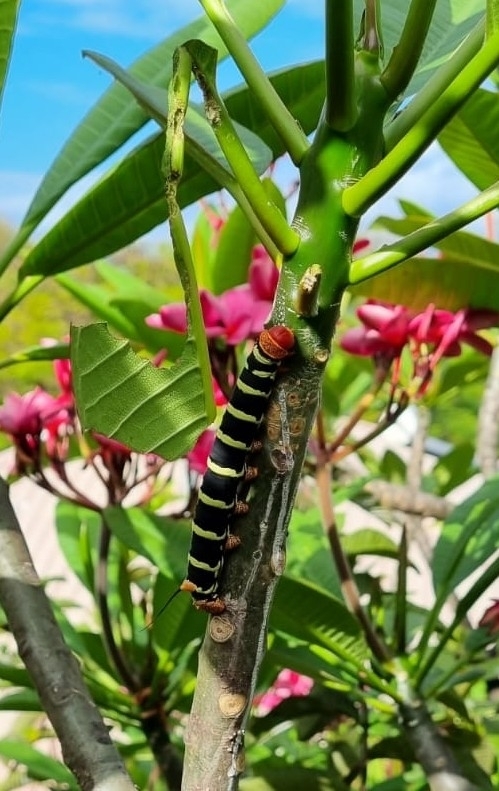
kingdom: Animalia
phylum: Arthropoda
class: Insecta
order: Lepidoptera
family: Sphingidae
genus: Pseudosphinx
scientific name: Pseudosphinx tetrio
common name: Tetrio sphinx
